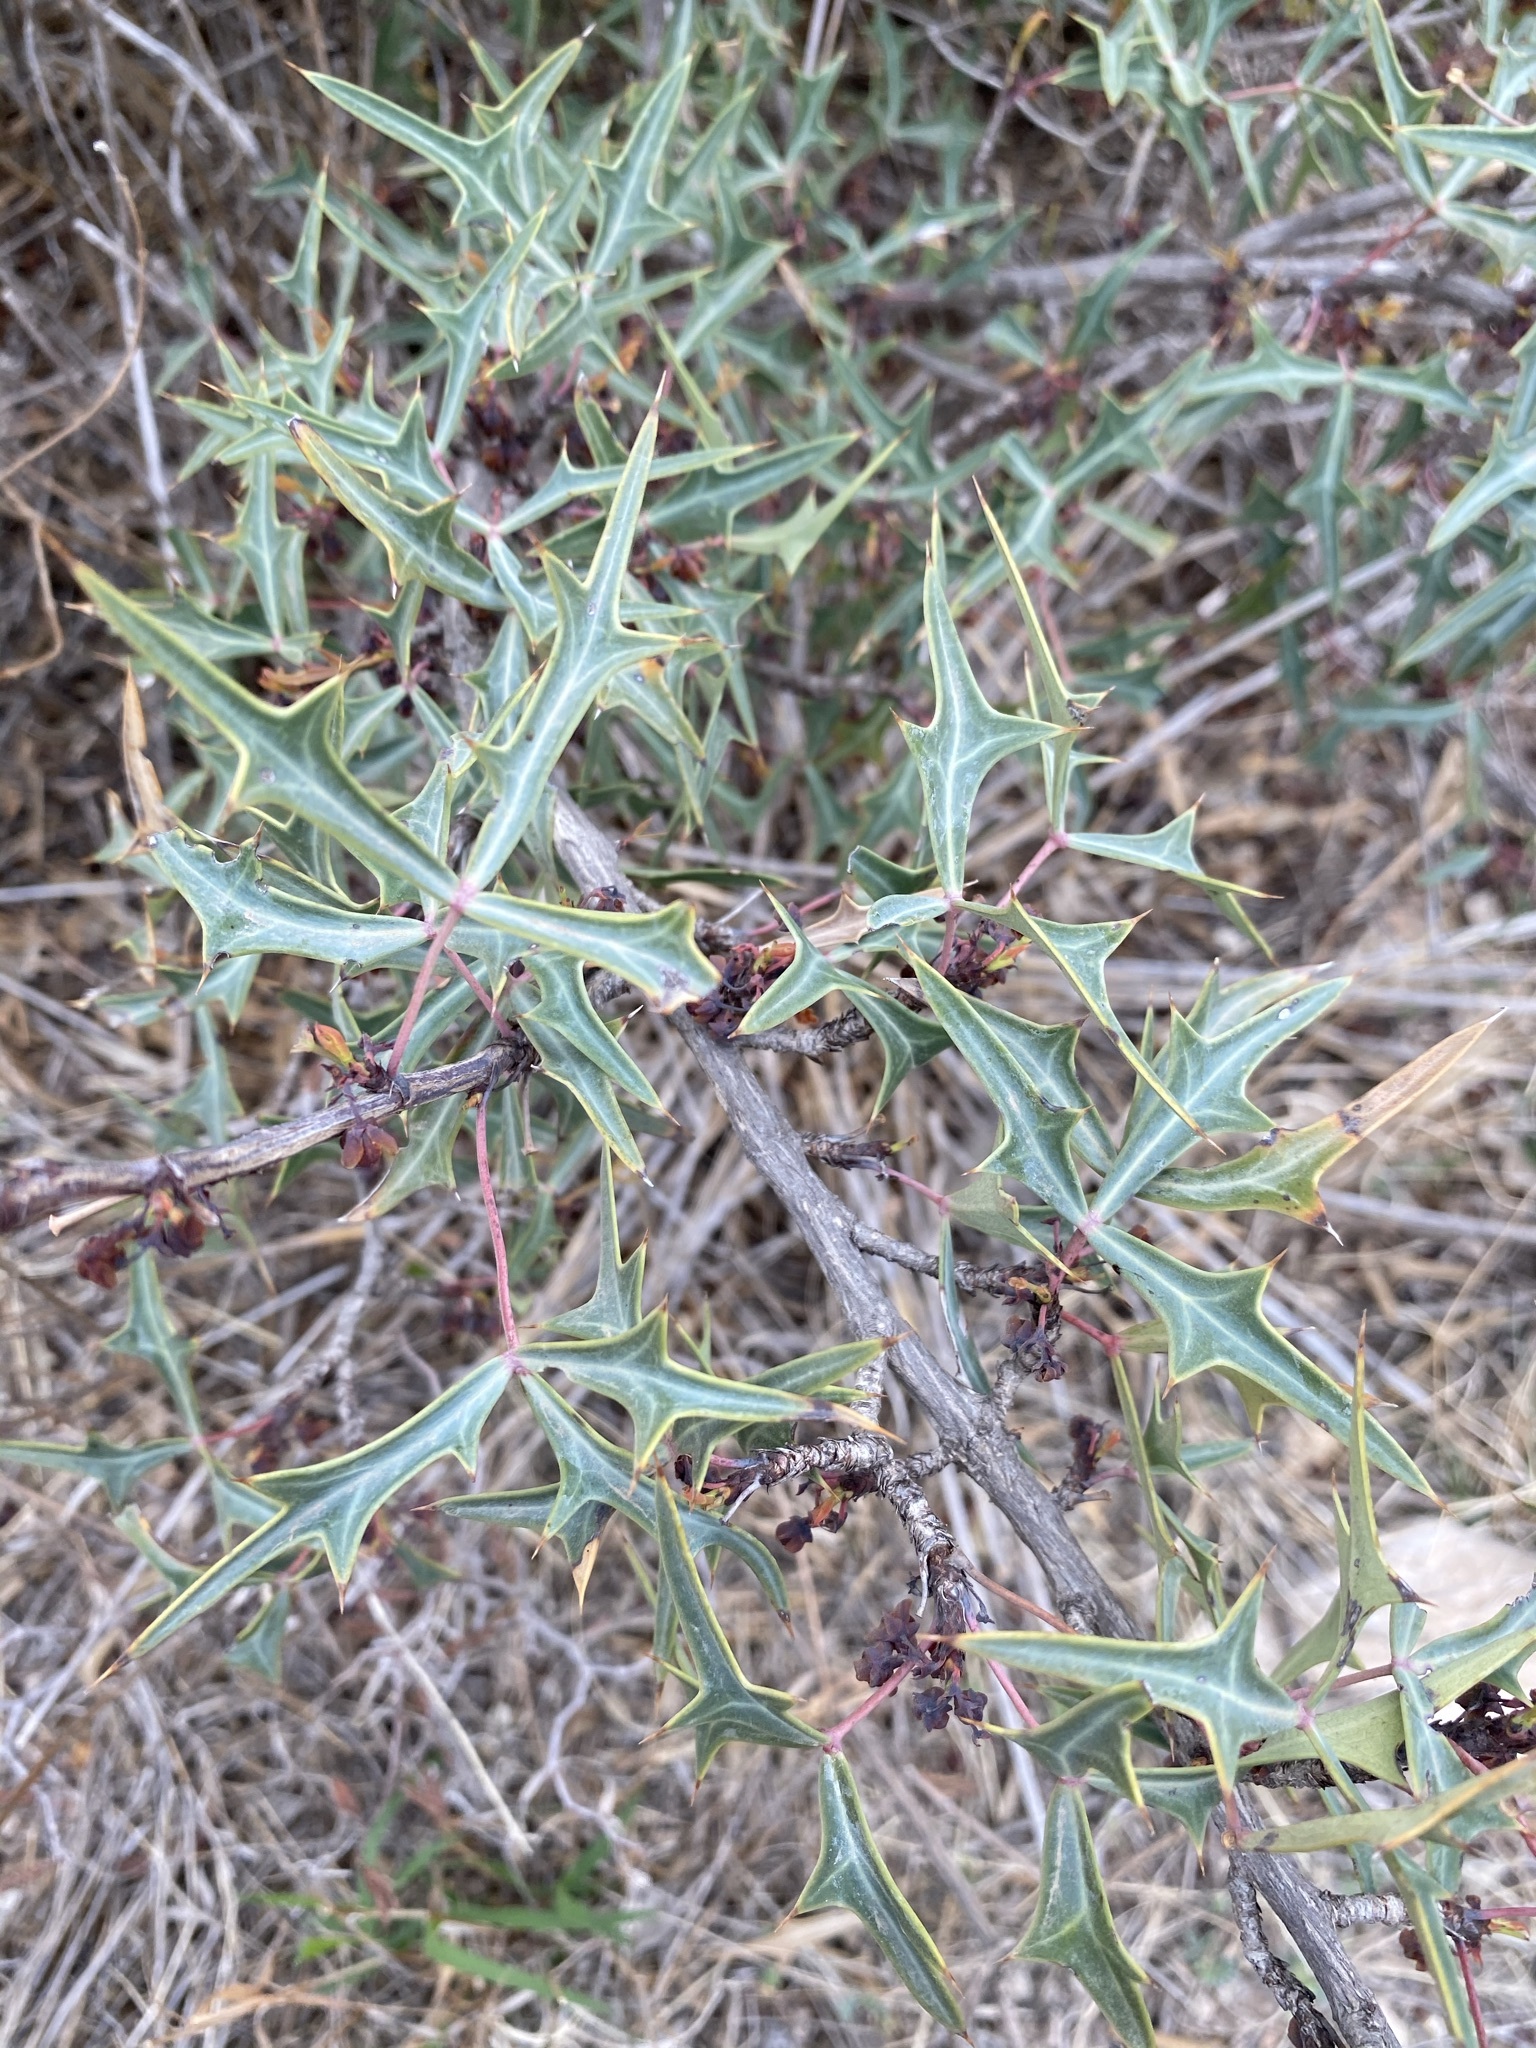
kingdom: Plantae
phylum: Tracheophyta
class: Magnoliopsida
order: Ranunculales
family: Berberidaceae
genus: Alloberberis
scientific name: Alloberberis trifoliolata
